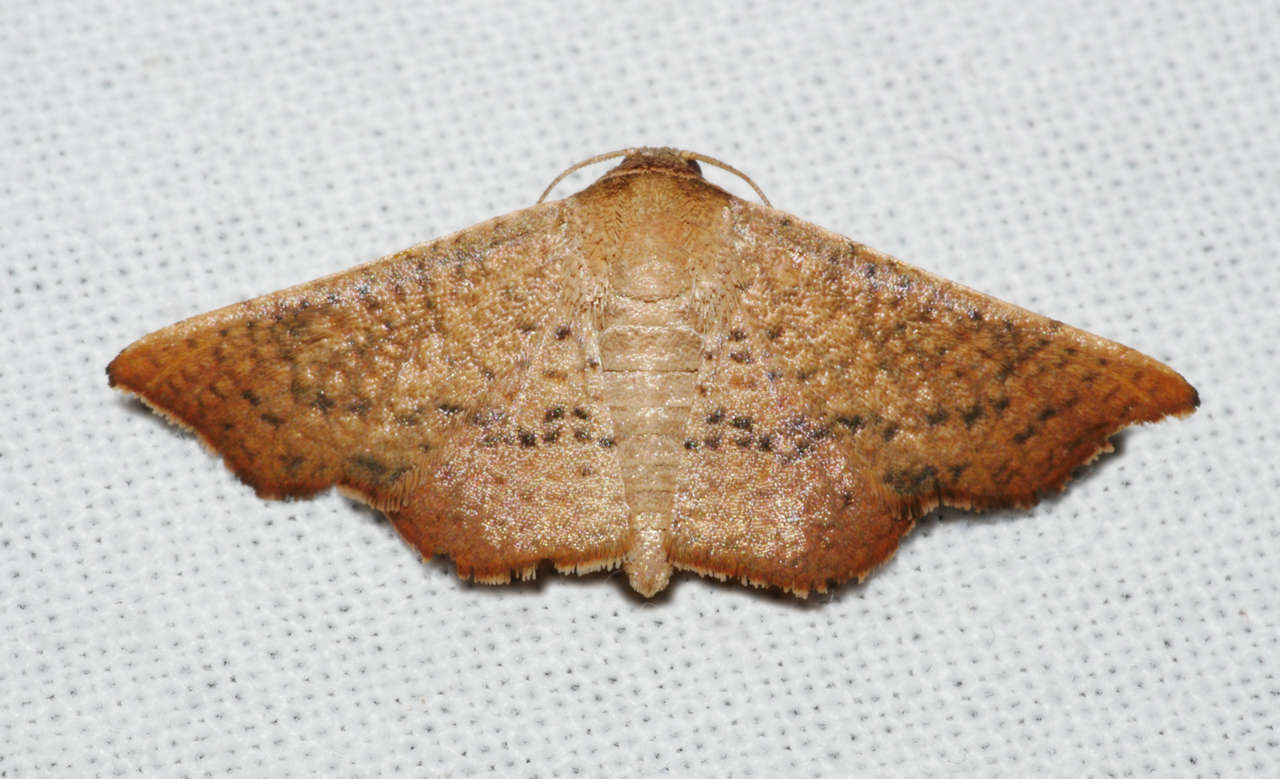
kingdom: Animalia
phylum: Arthropoda
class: Insecta
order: Lepidoptera
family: Thyrididae
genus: Aglaopus
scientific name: Aglaopus centiginosa
